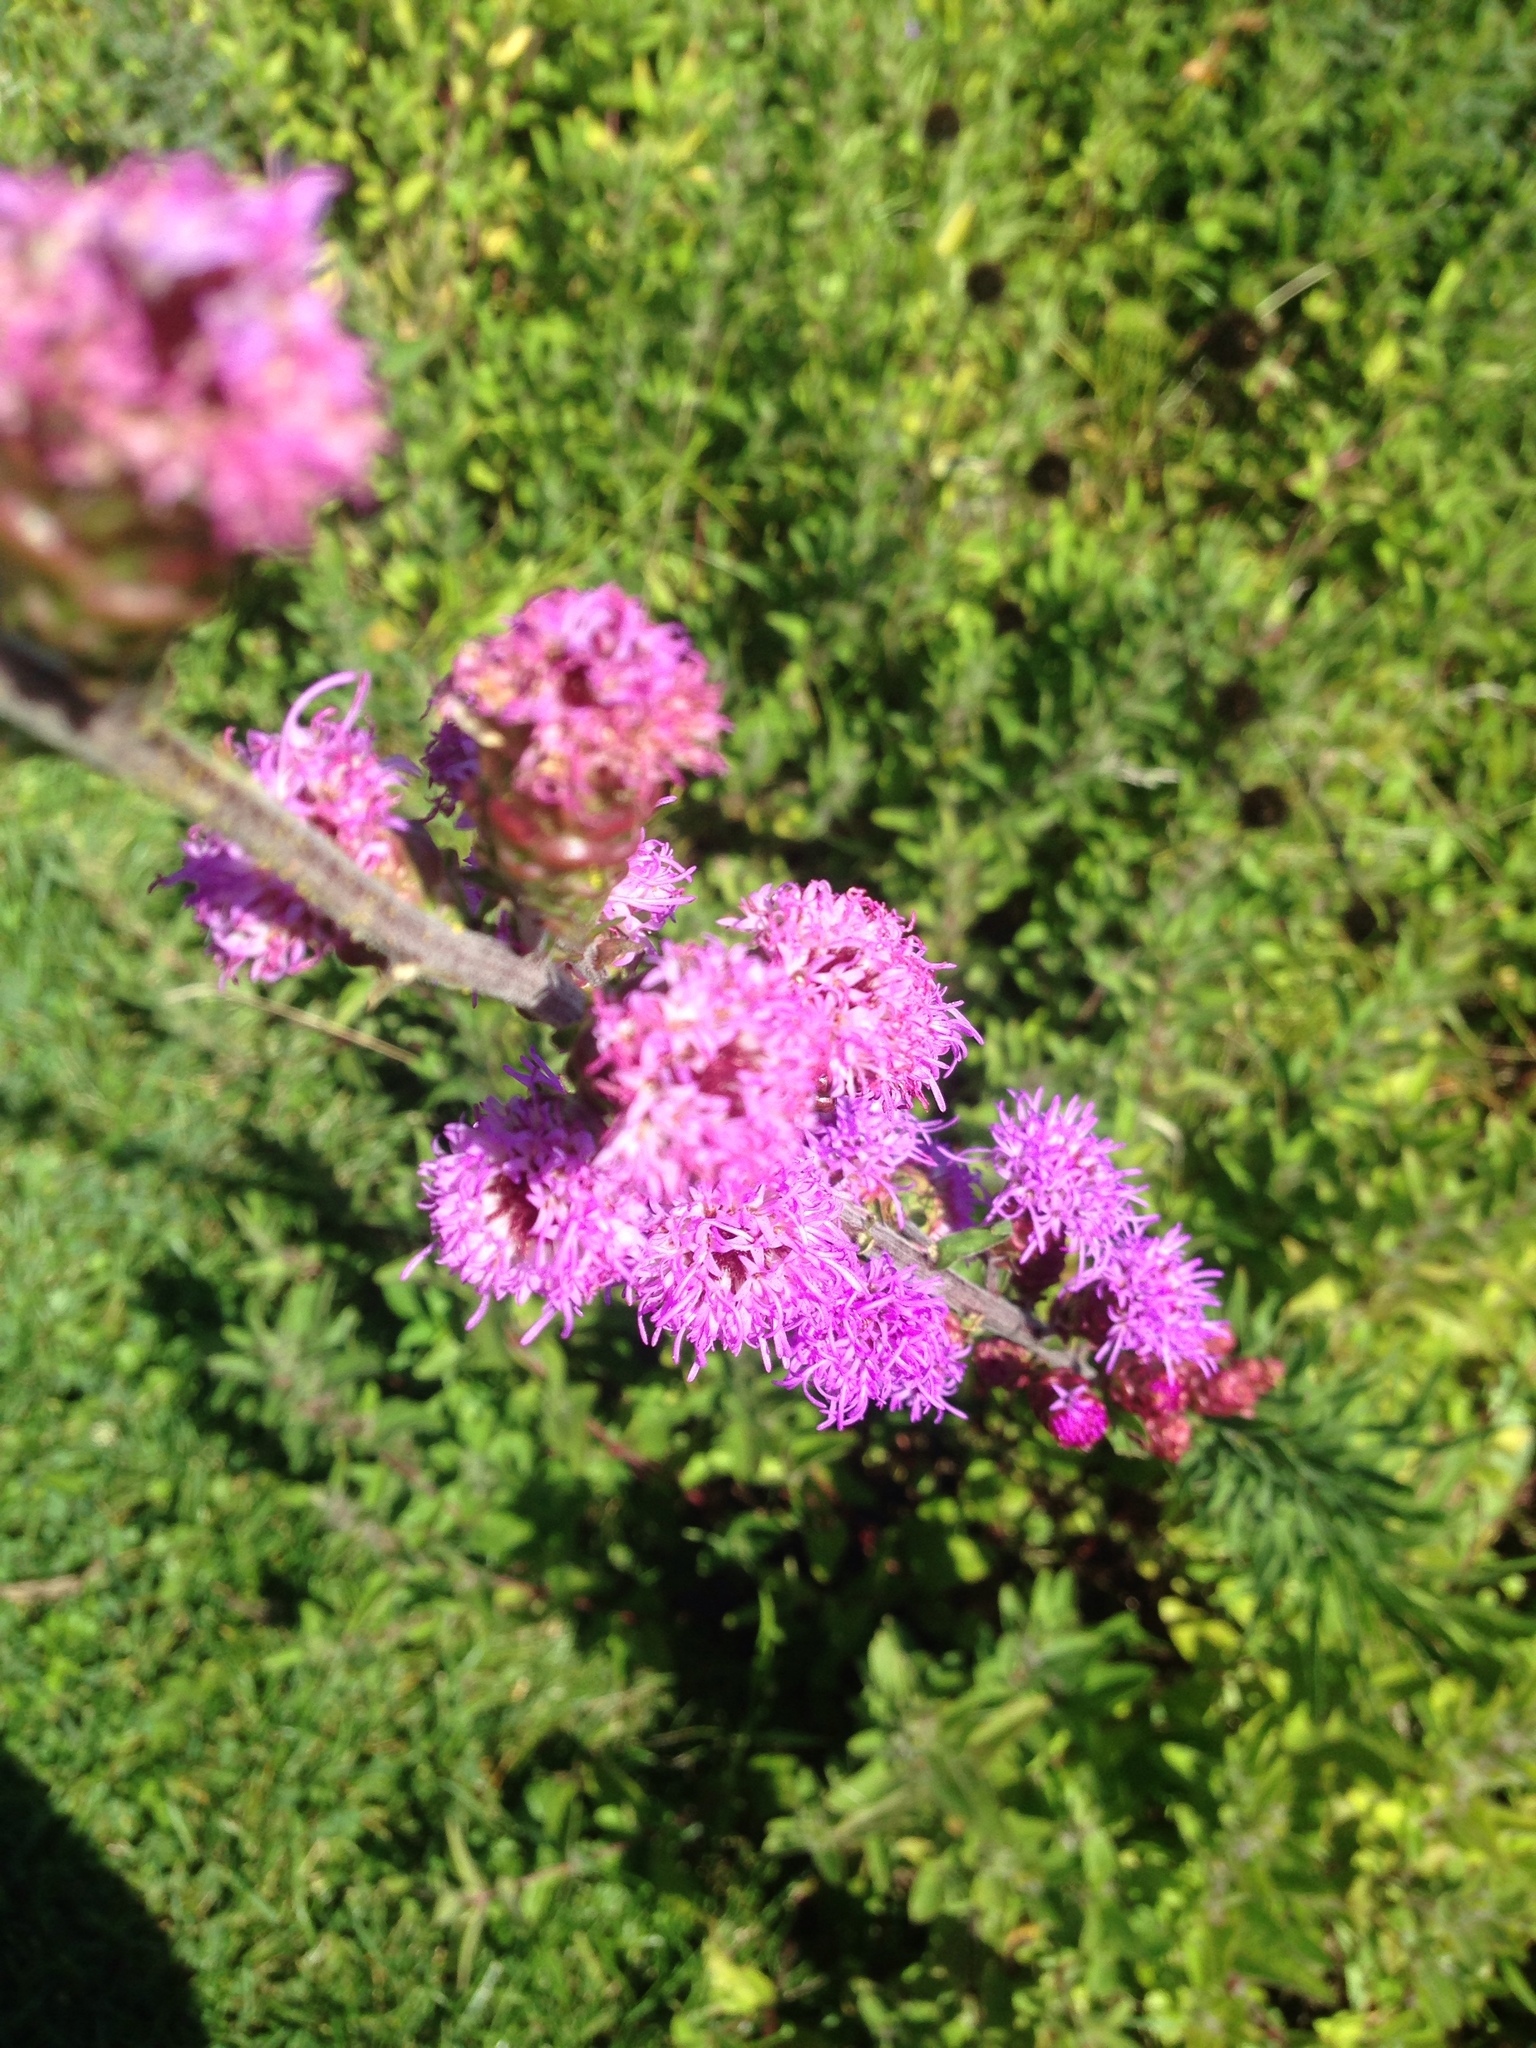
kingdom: Plantae
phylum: Tracheophyta
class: Magnoliopsida
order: Asterales
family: Asteraceae
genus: Liatris
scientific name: Liatris aspera
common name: Lacerate blazing-star
